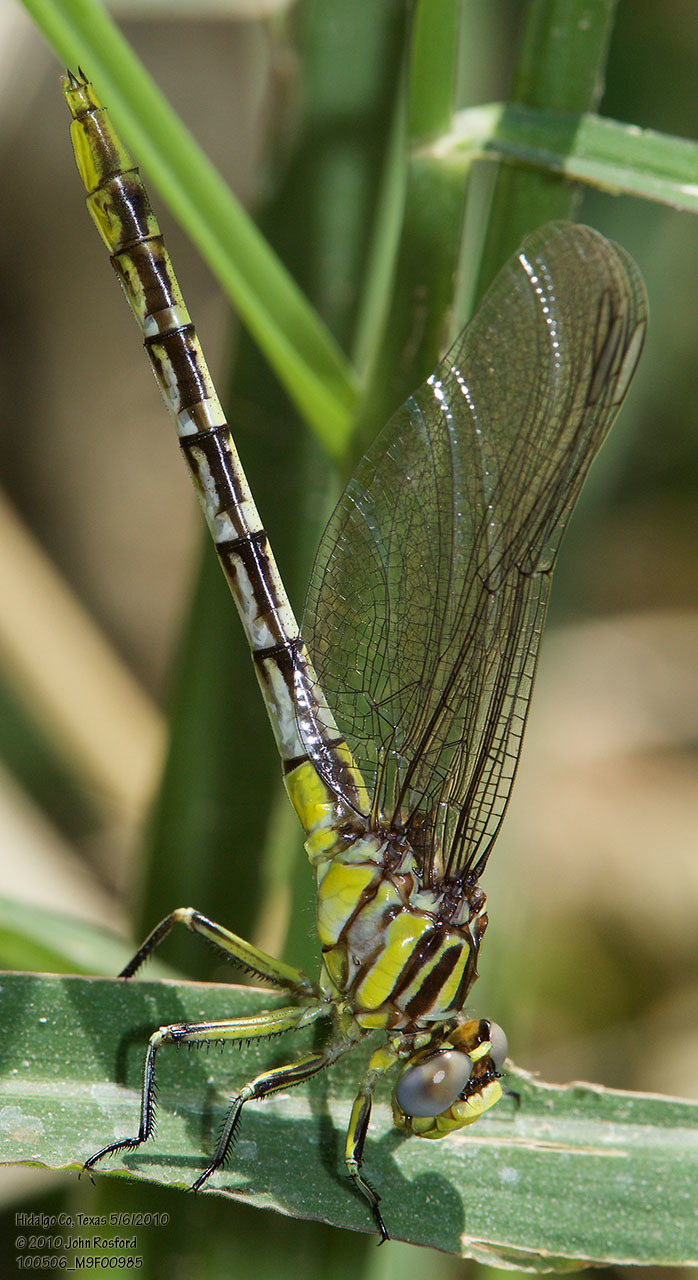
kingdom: Animalia
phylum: Arthropoda
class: Insecta
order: Odonata
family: Gomphidae
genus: Phanogomphus
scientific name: Phanogomphus militaris
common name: Sulphur-tipped clubtail
